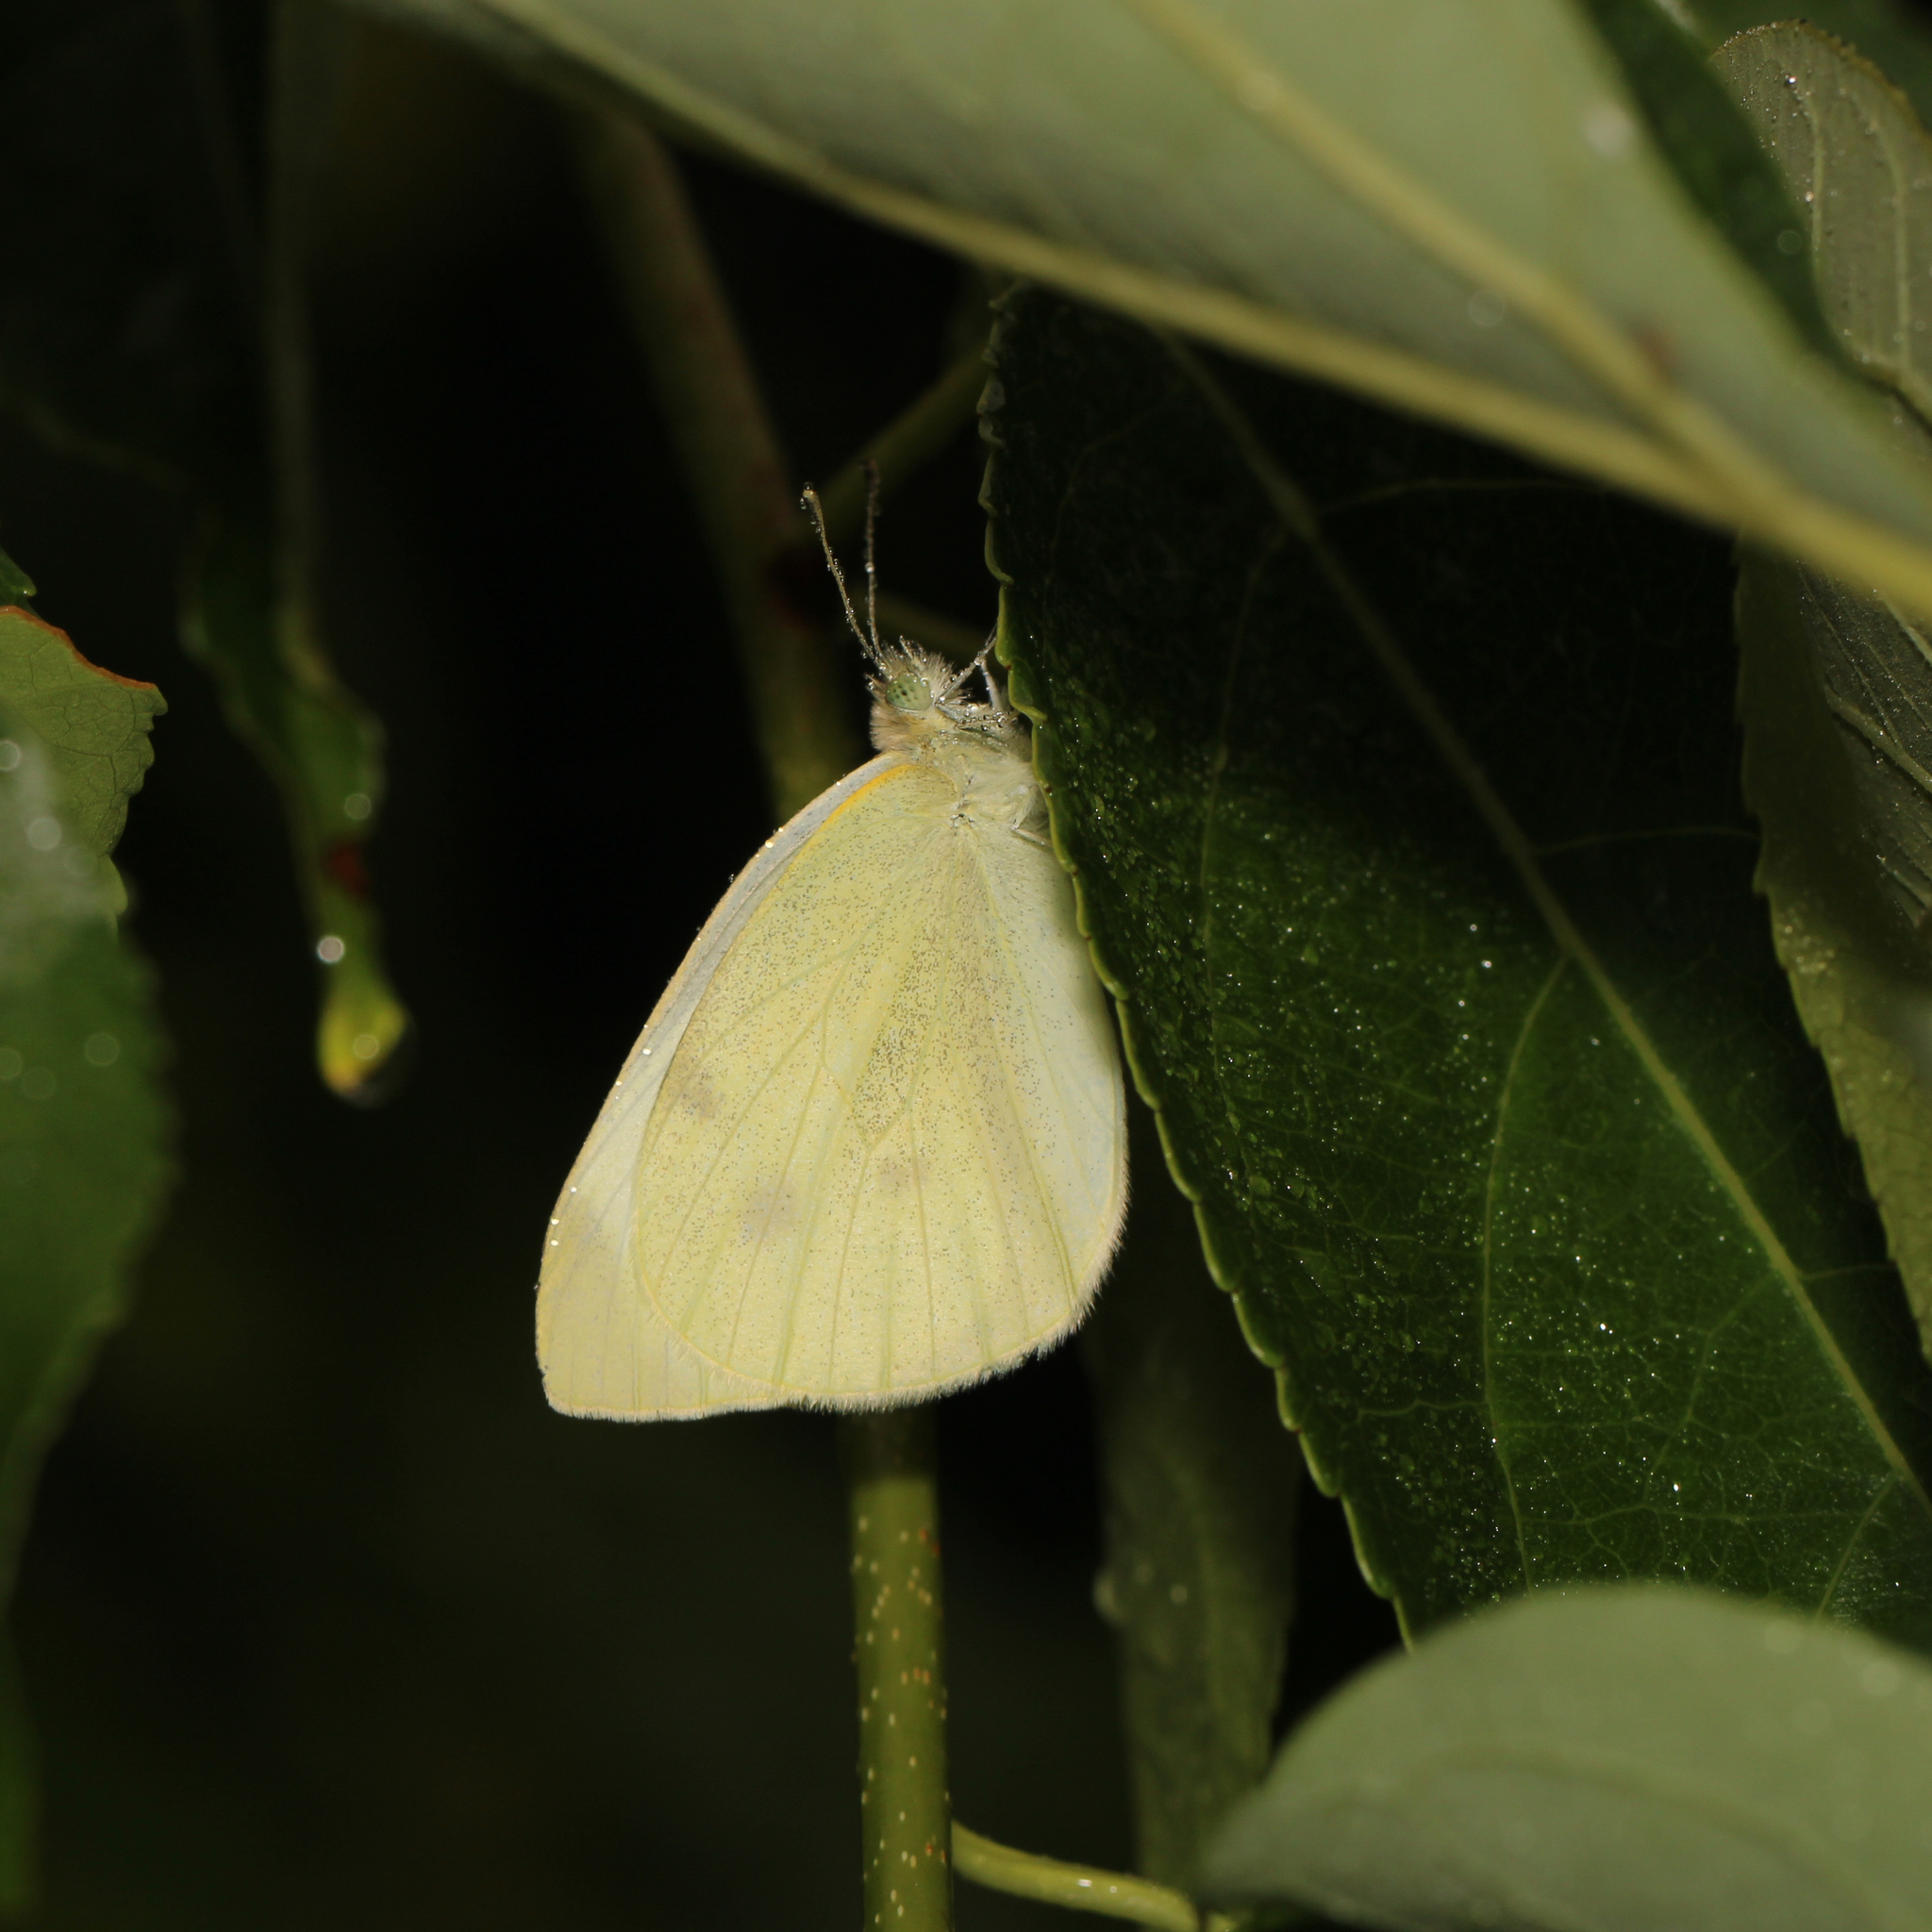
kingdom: Animalia
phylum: Arthropoda
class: Insecta
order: Lepidoptera
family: Pieridae
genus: Pieris
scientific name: Pieris rapae
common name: Small white
